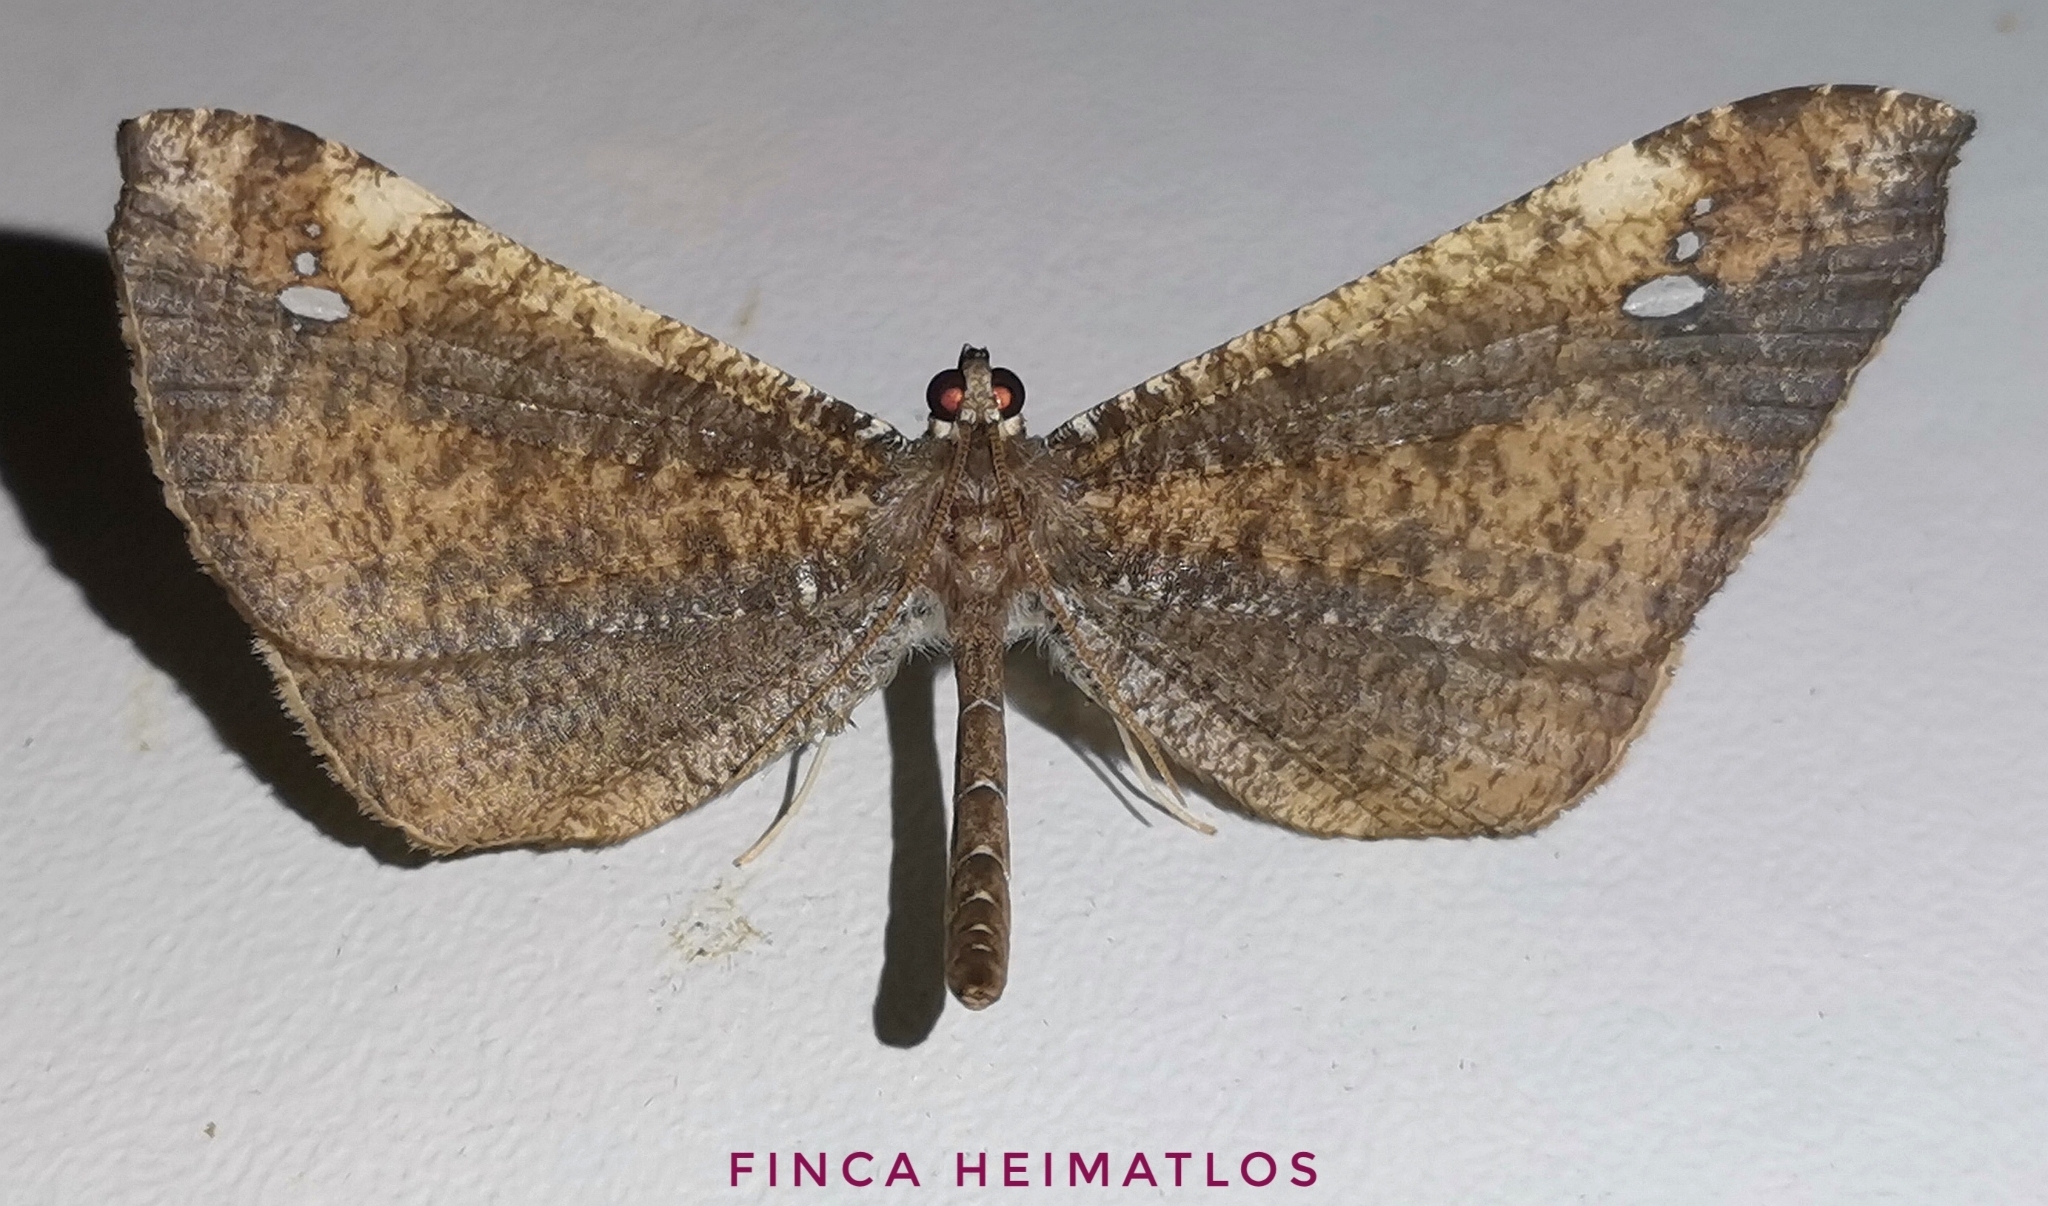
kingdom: Animalia
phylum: Arthropoda
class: Insecta
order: Lepidoptera
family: Hedylidae
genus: Macrosoma
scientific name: Macrosoma muscerdata
